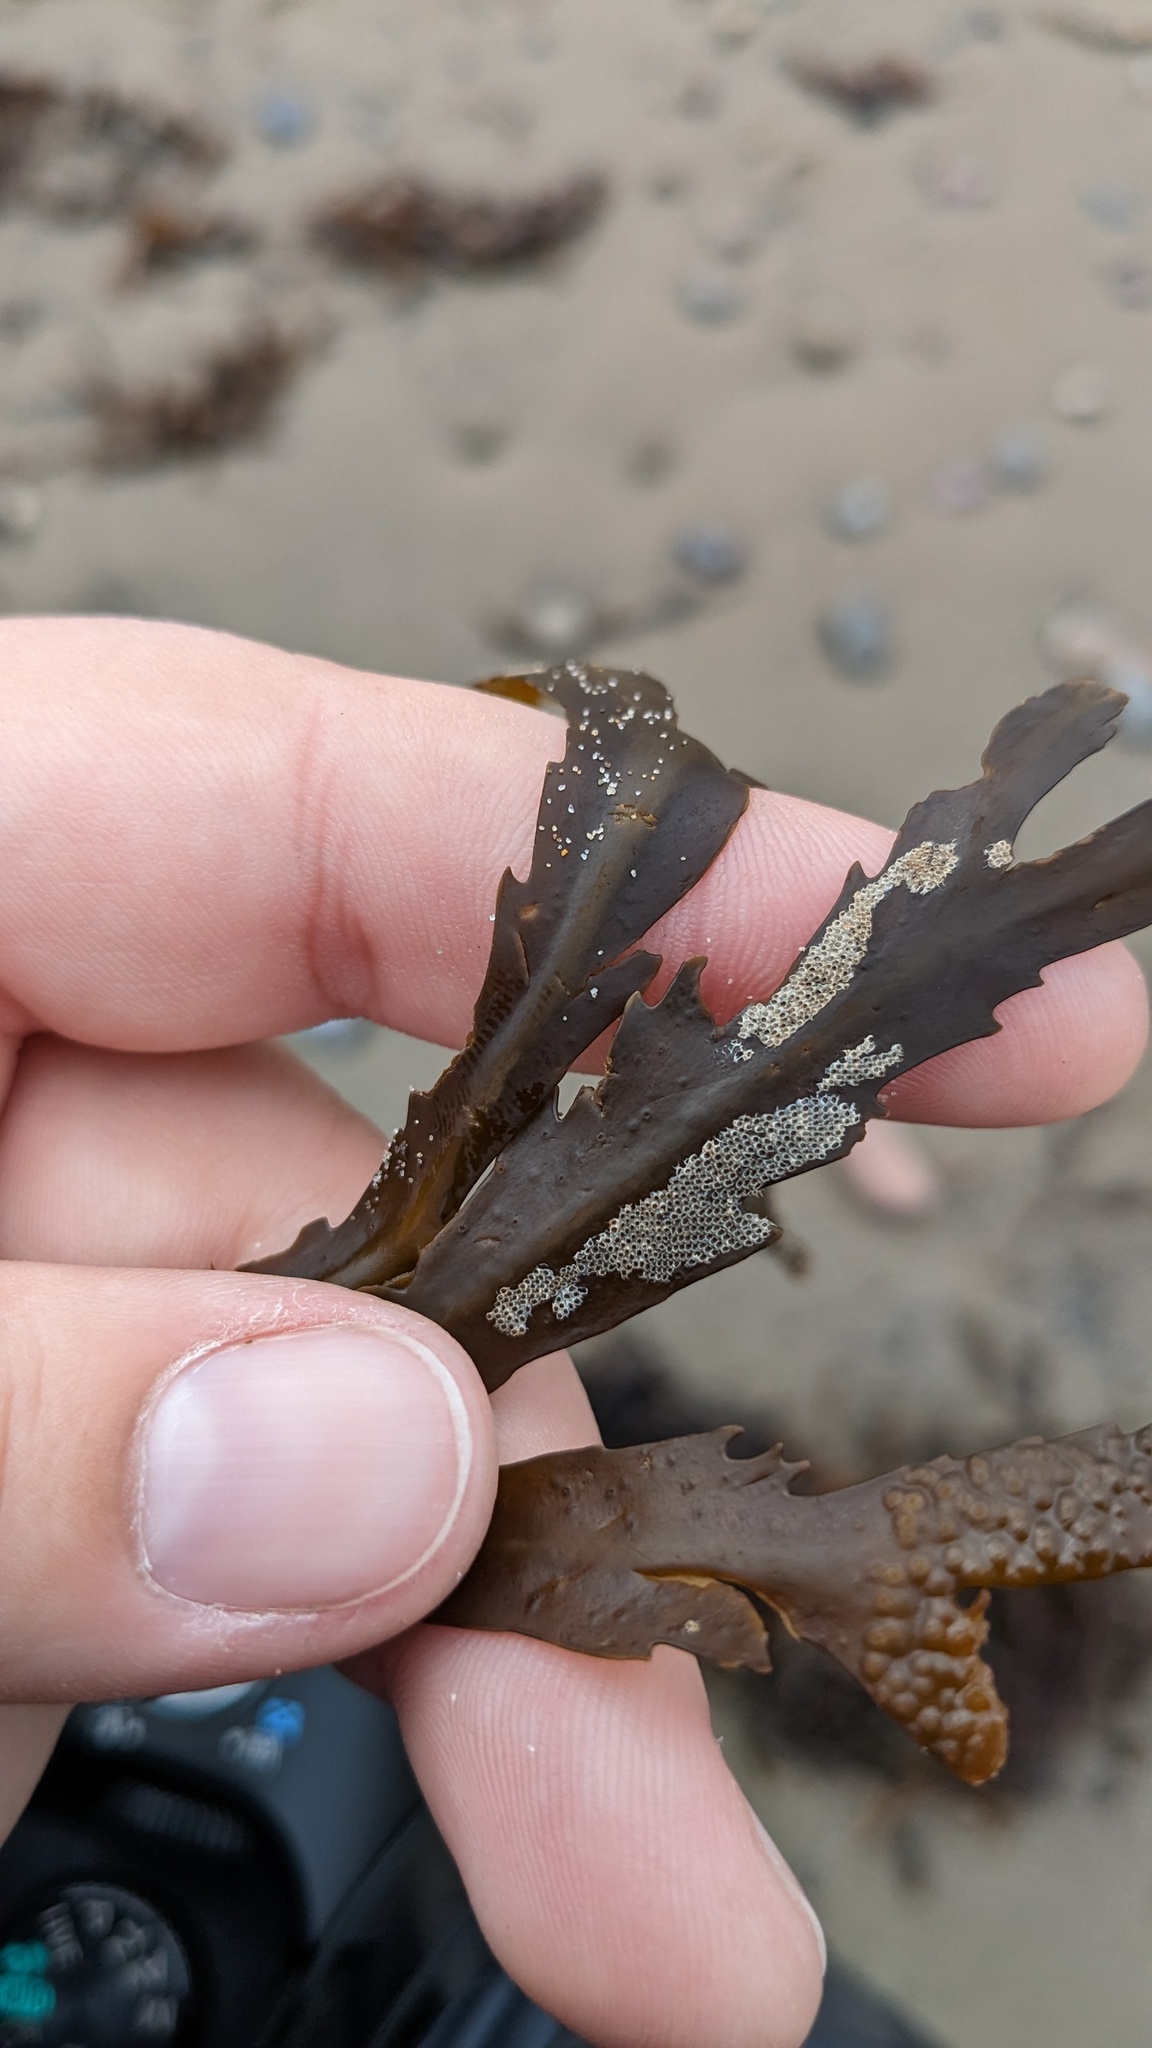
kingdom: Animalia
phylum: Bryozoa
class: Gymnolaemata
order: Cheilostomatida
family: Electridae
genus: Electra
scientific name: Electra pilosa
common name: Hairy sea-mat
